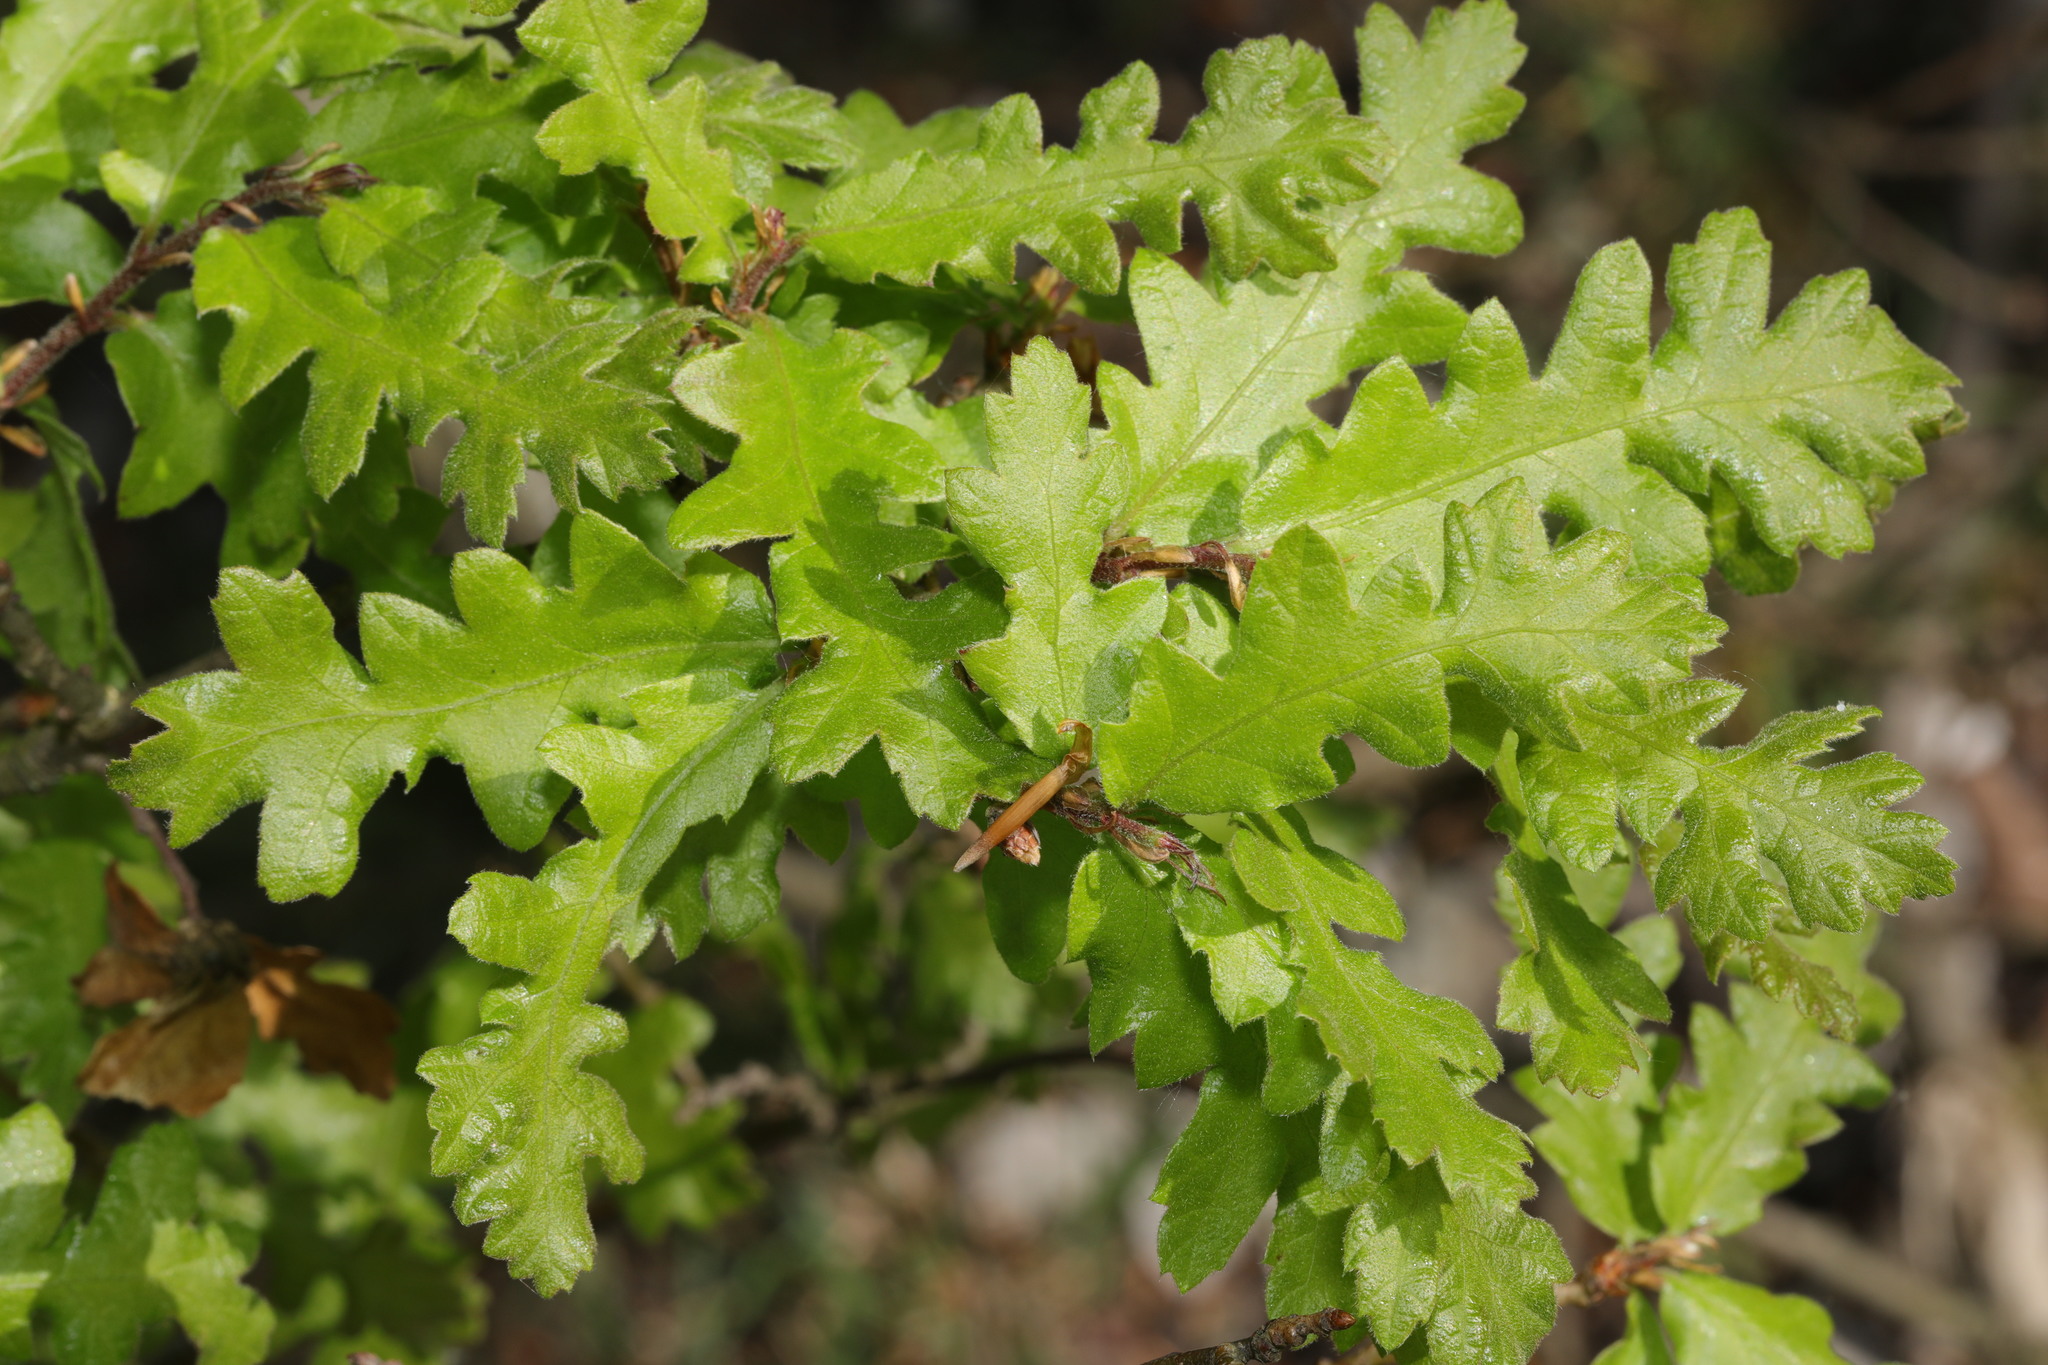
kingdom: Plantae
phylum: Tracheophyta
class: Magnoliopsida
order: Fagales
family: Fagaceae
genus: Quercus
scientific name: Quercus cerris
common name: Turkey oak
